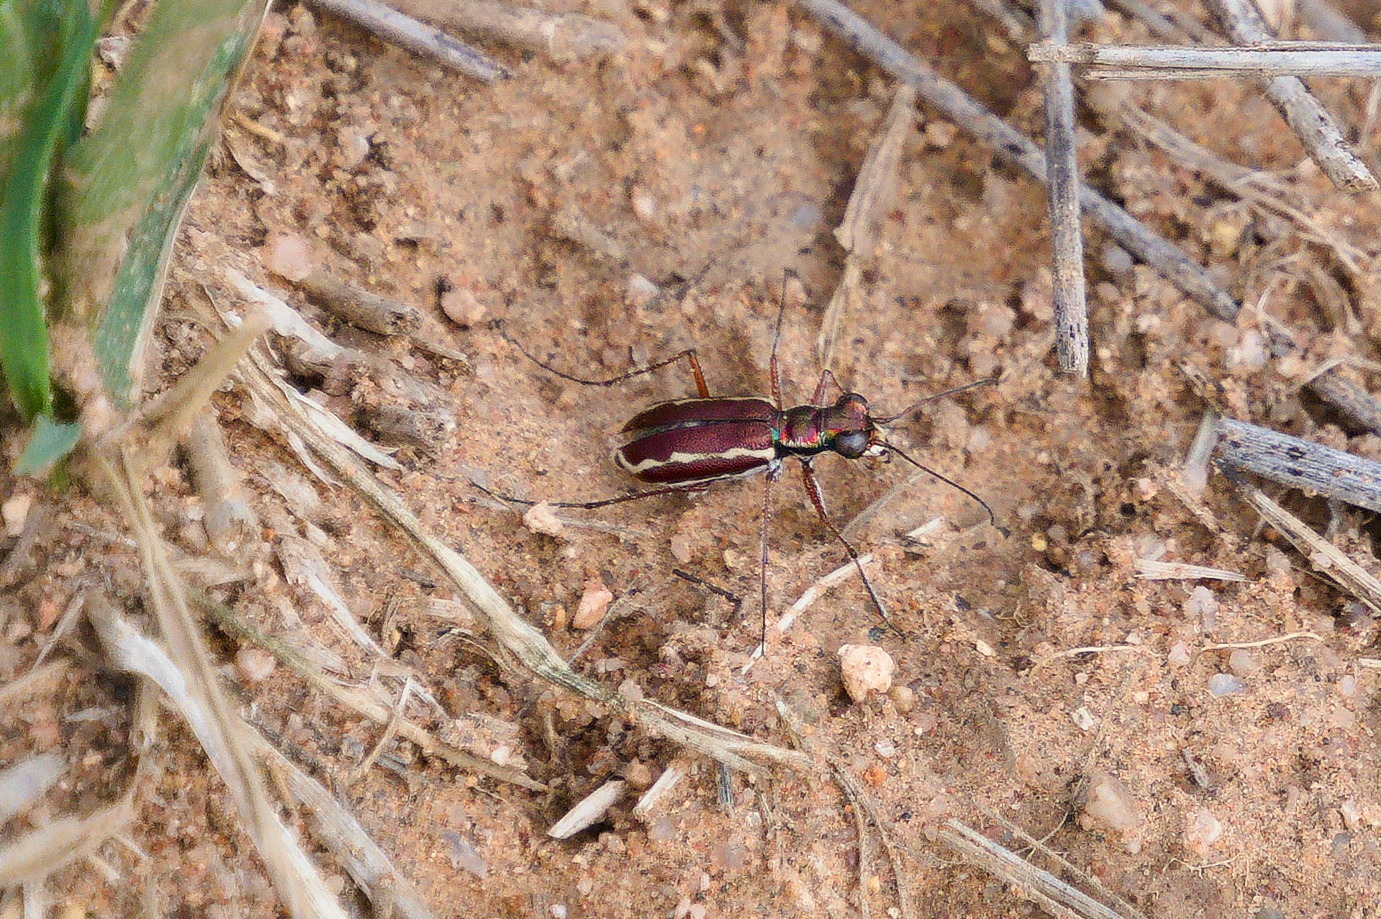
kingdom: Animalia
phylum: Arthropoda
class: Insecta
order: Coleoptera
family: Carabidae
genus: Cylindera
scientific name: Cylindera lemniscata
